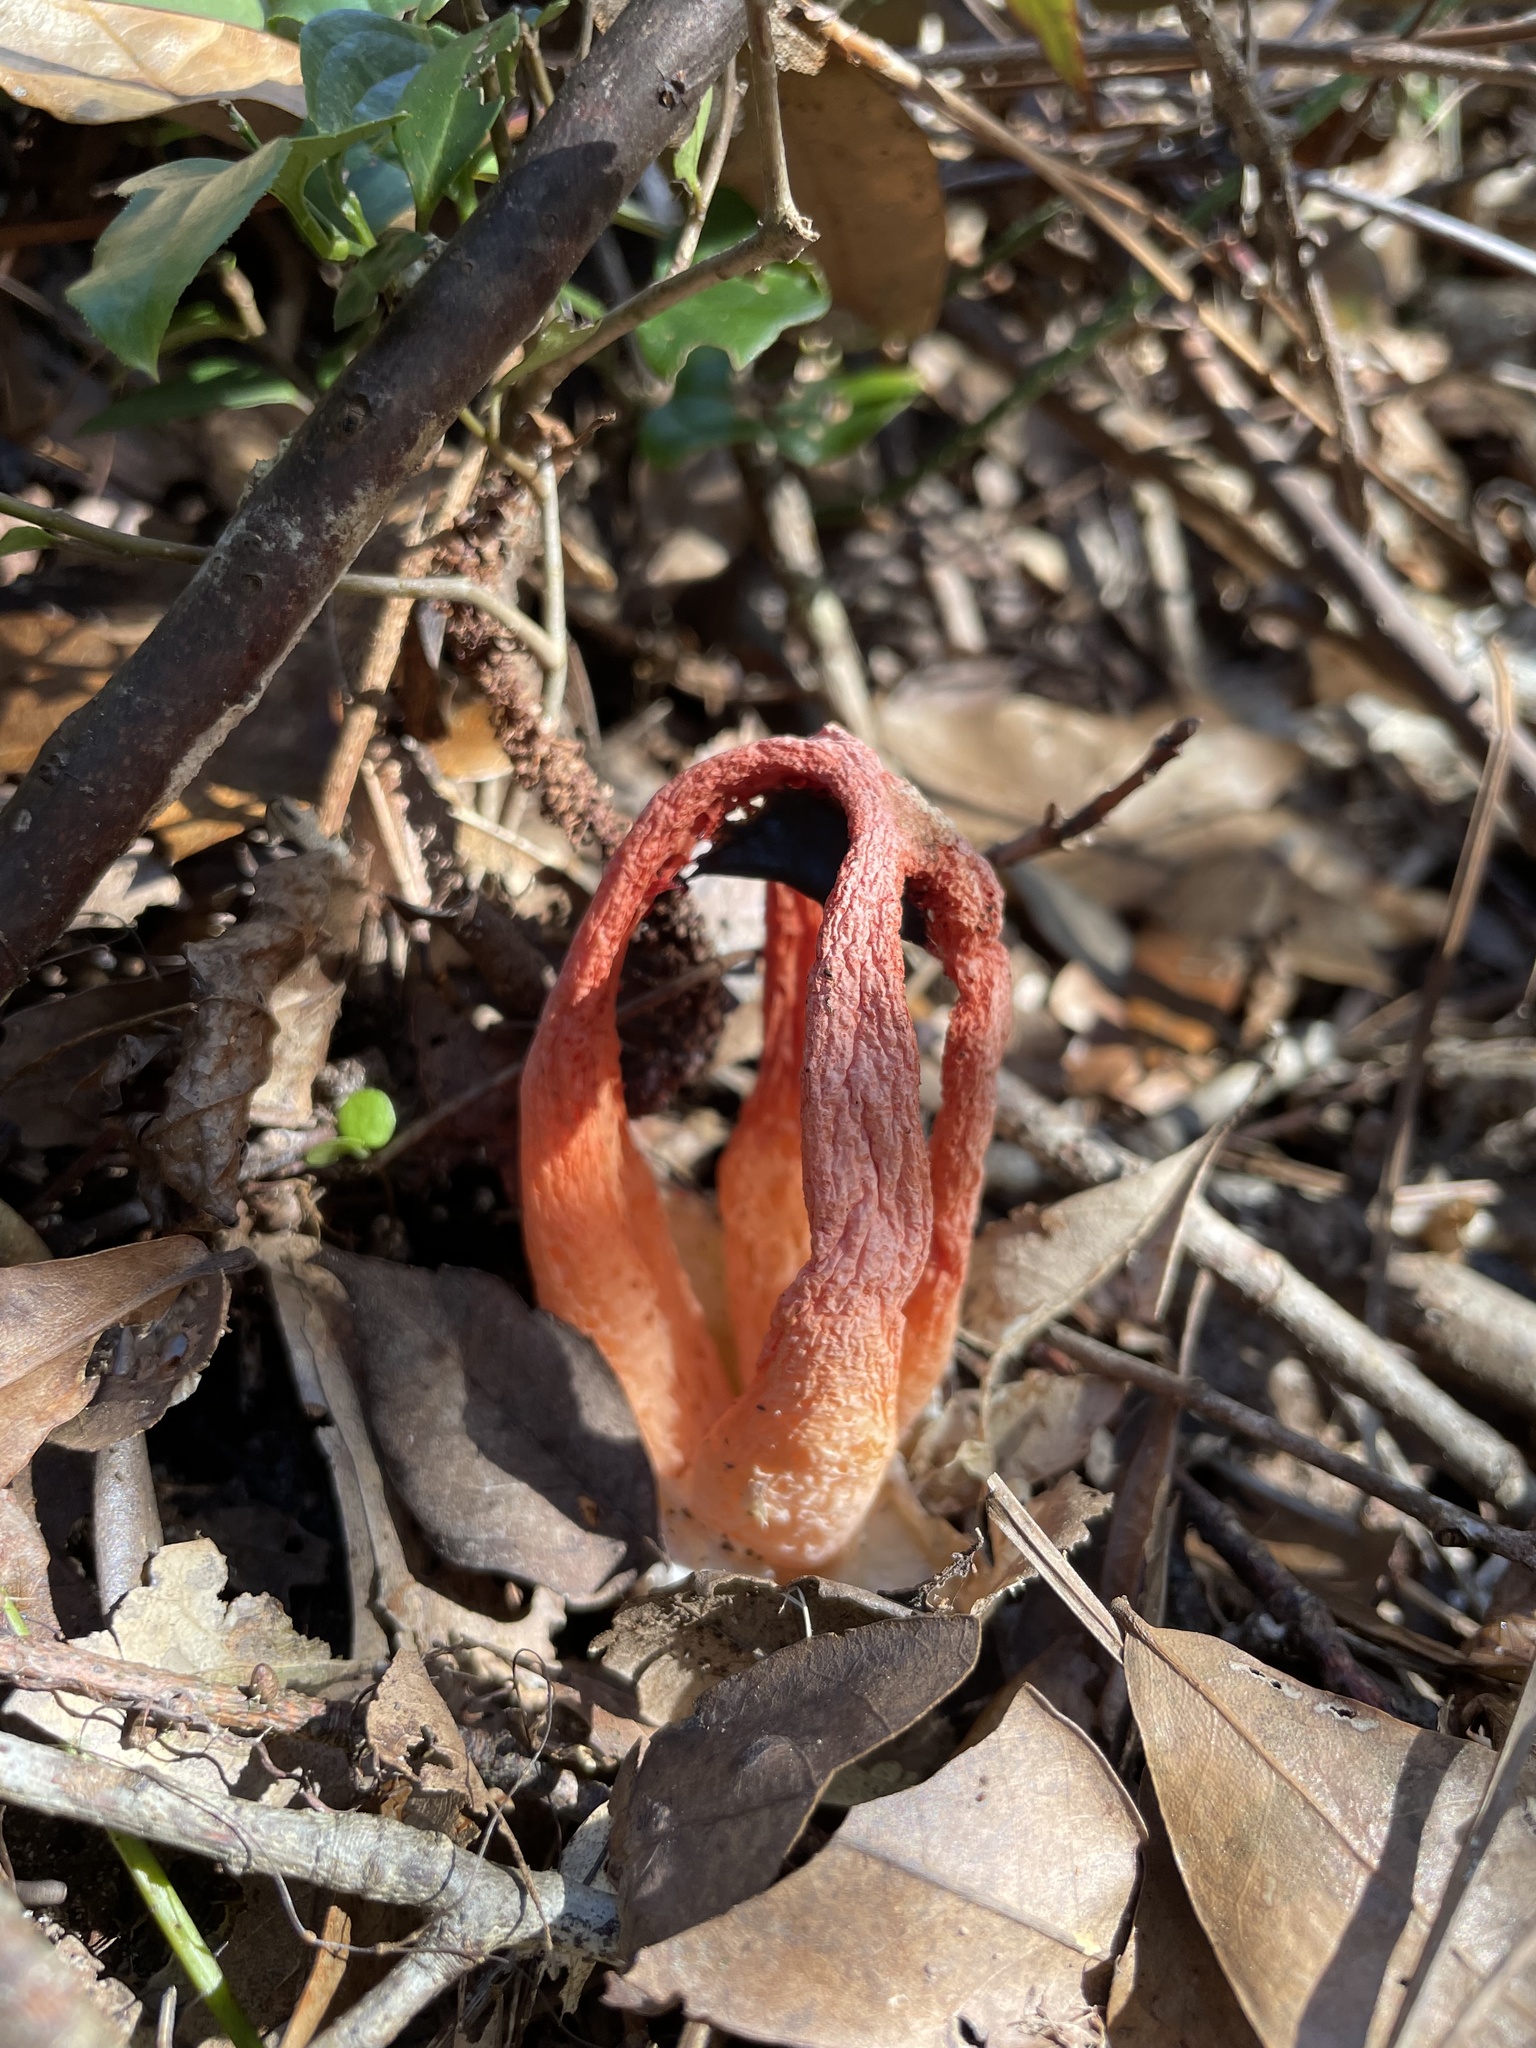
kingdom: Fungi
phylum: Basidiomycota
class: Agaricomycetes
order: Phallales
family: Phallaceae
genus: Clathrus
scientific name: Clathrus columnatus
